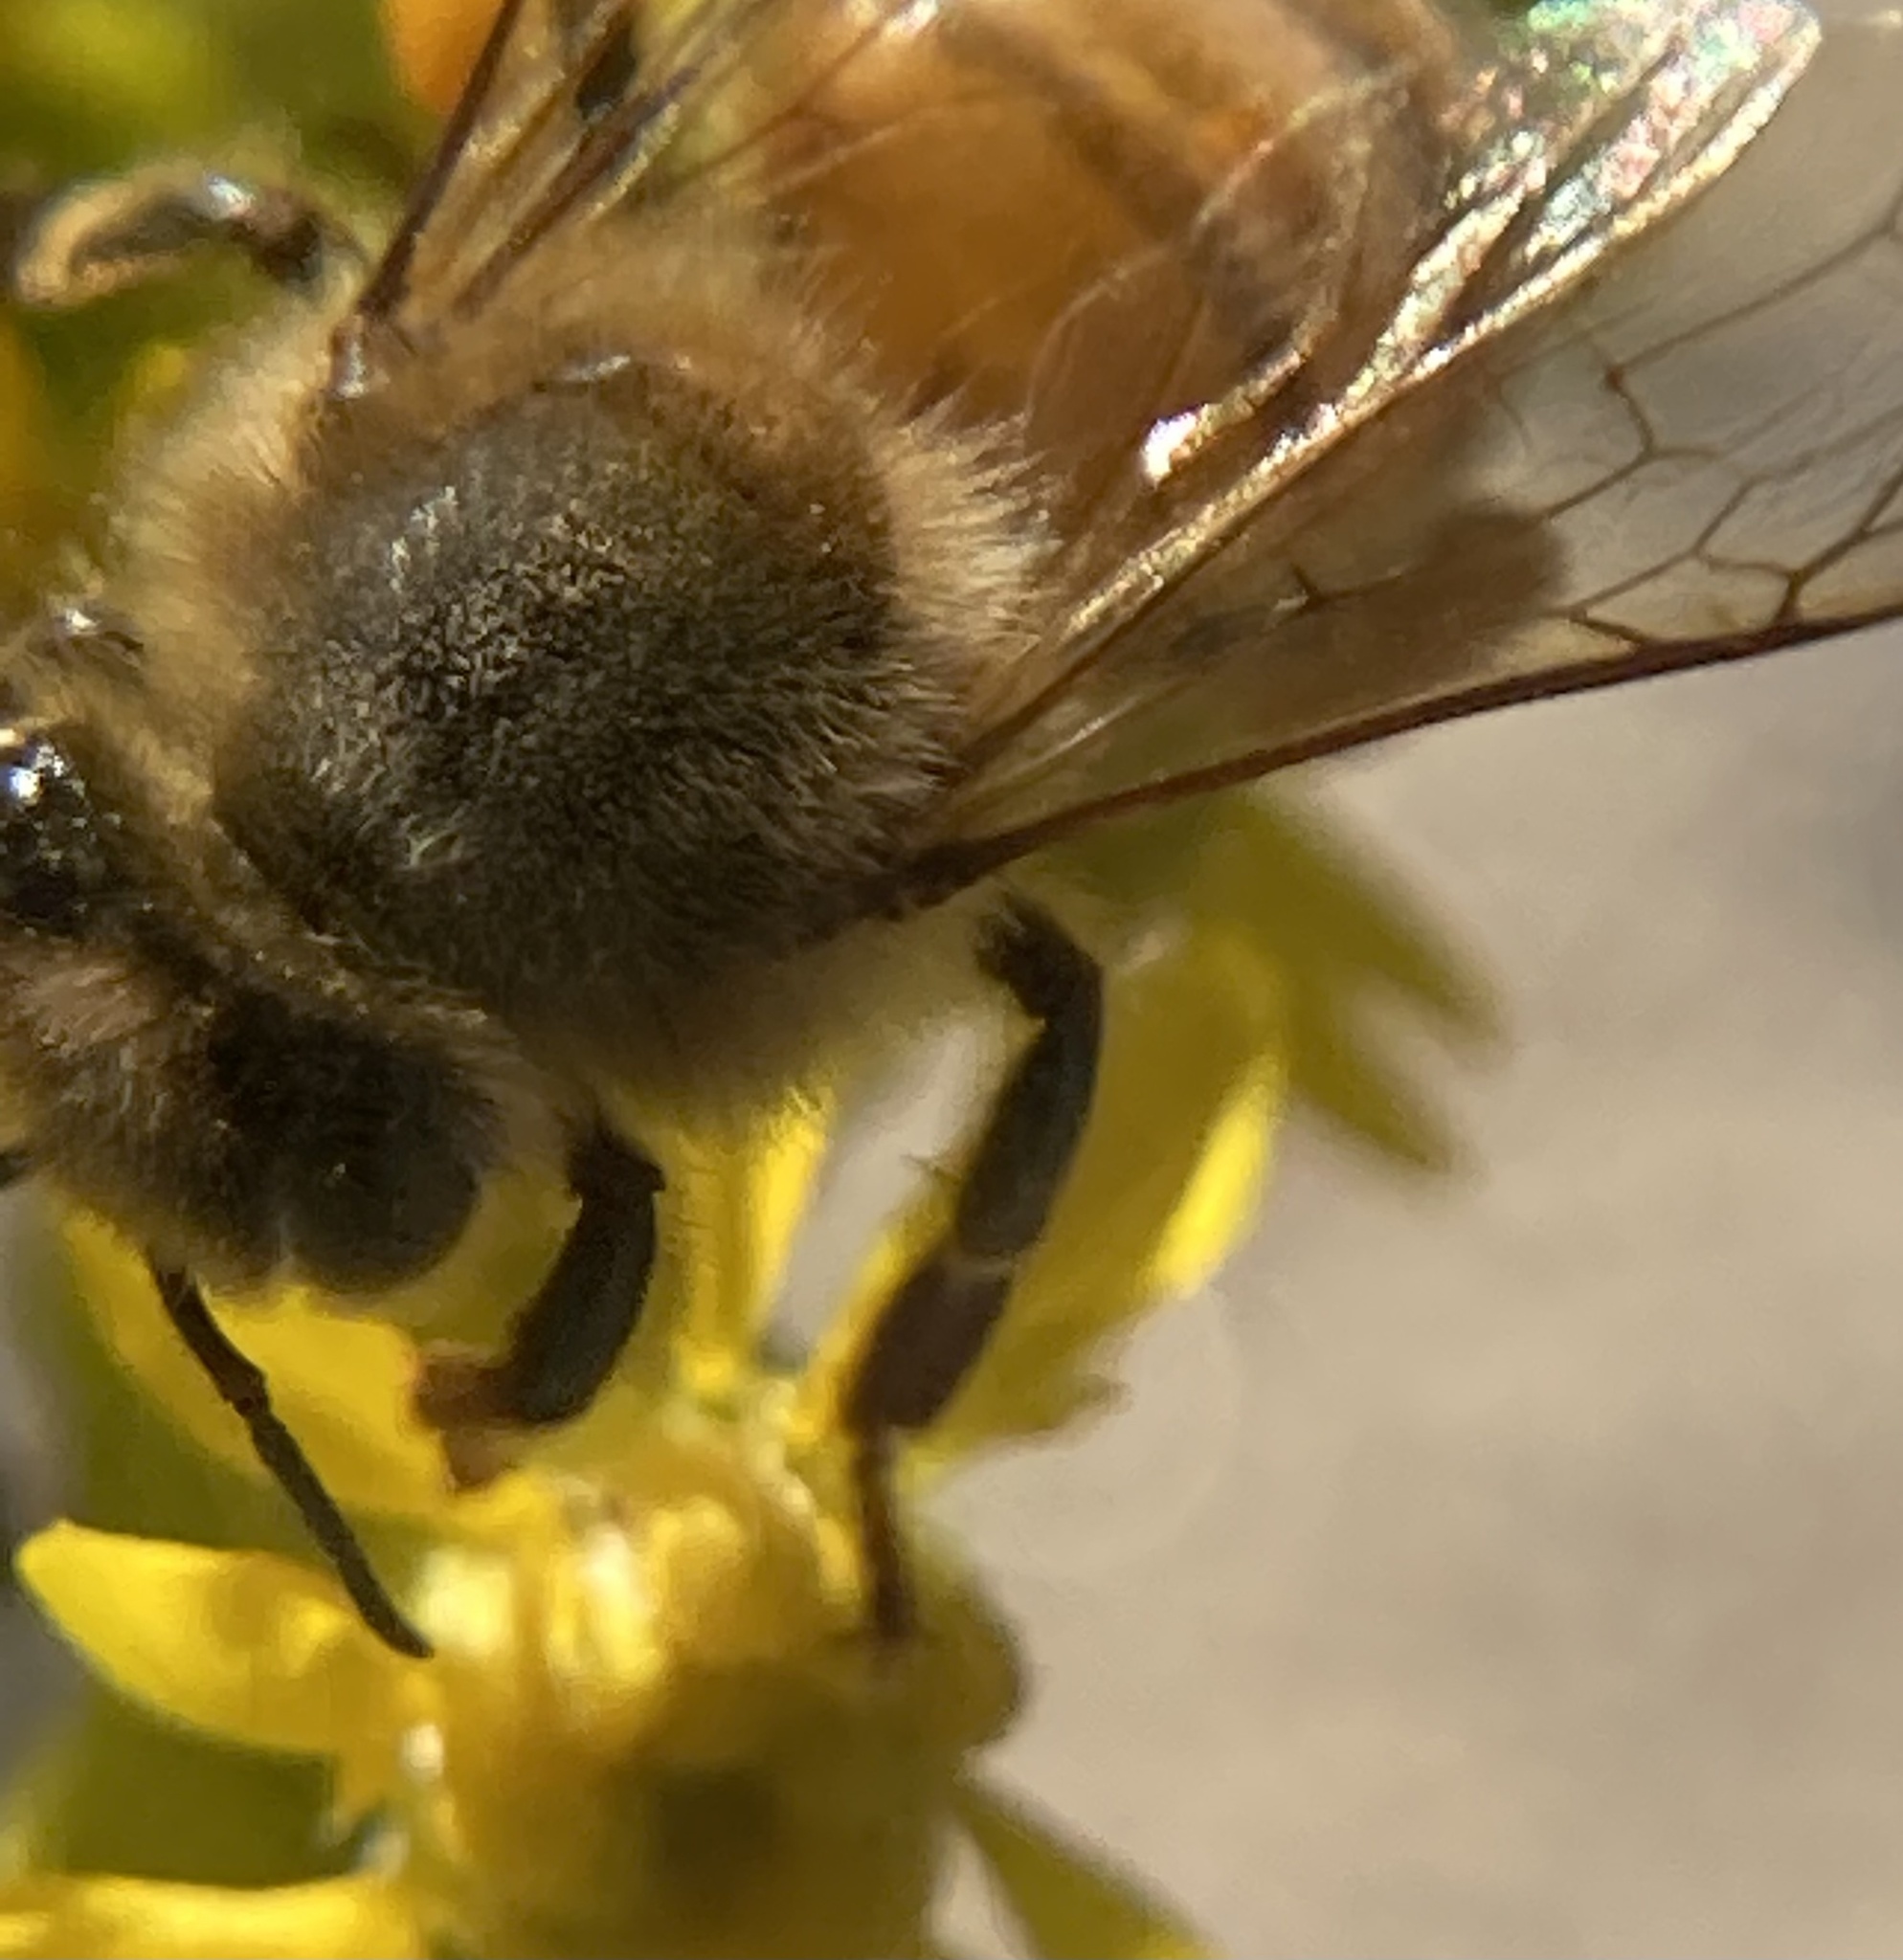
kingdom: Animalia
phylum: Arthropoda
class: Insecta
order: Hymenoptera
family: Apidae
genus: Apis
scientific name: Apis mellifera
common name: Honey bee
